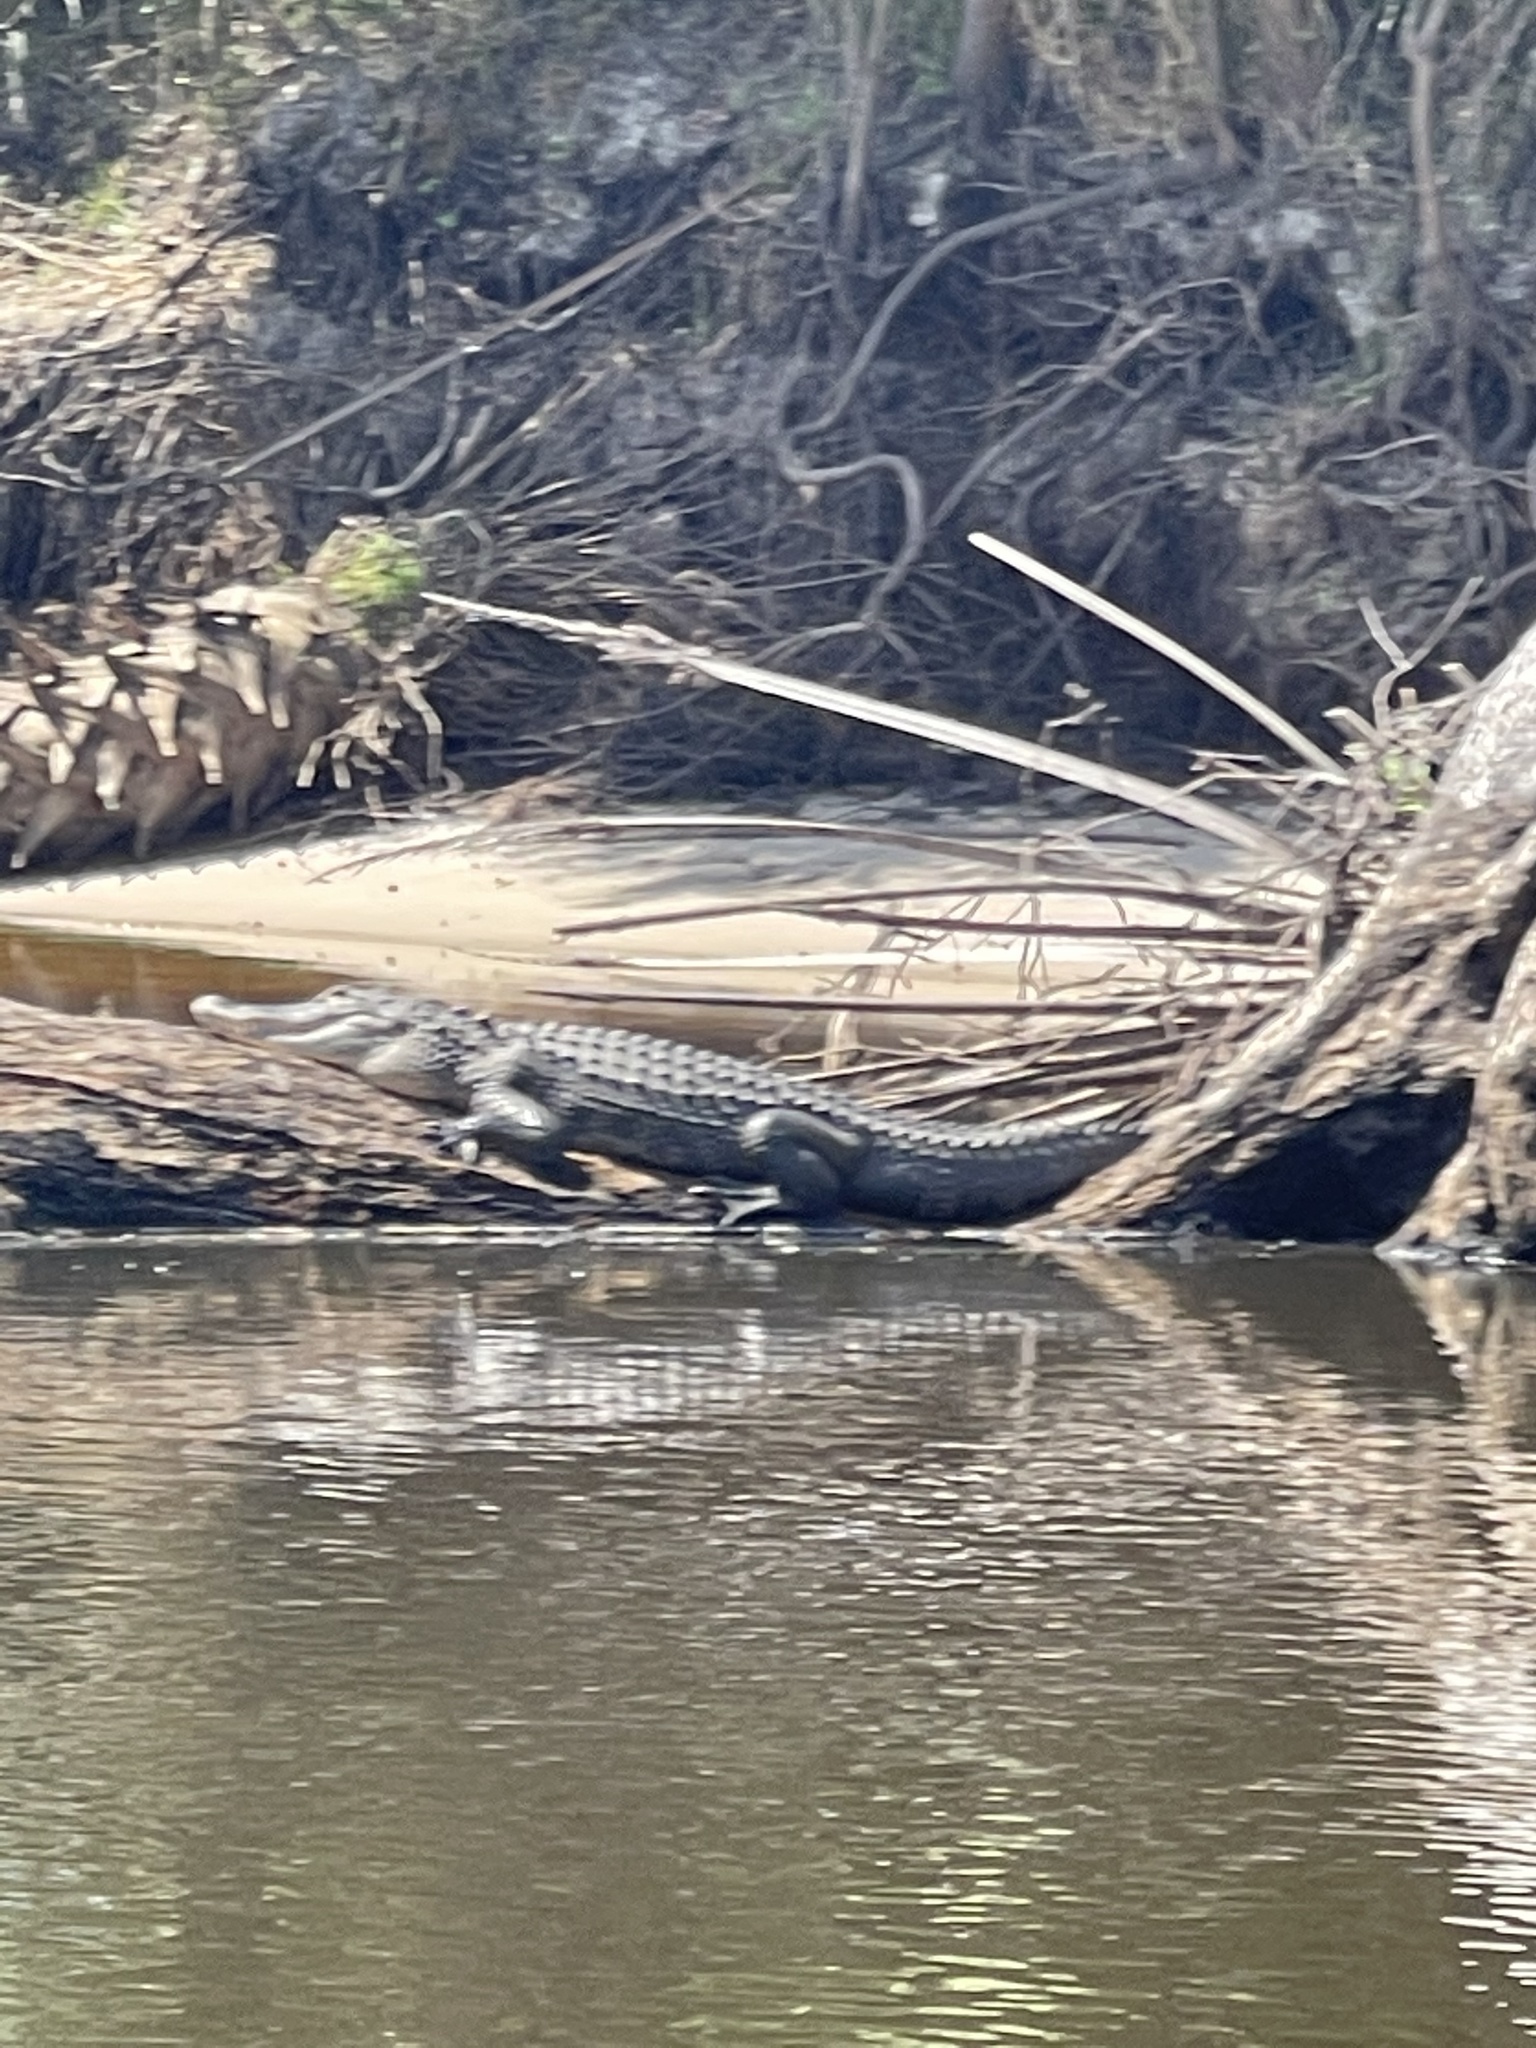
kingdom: Animalia
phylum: Chordata
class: Crocodylia
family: Alligatoridae
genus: Alligator
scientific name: Alligator mississippiensis
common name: American alligator
